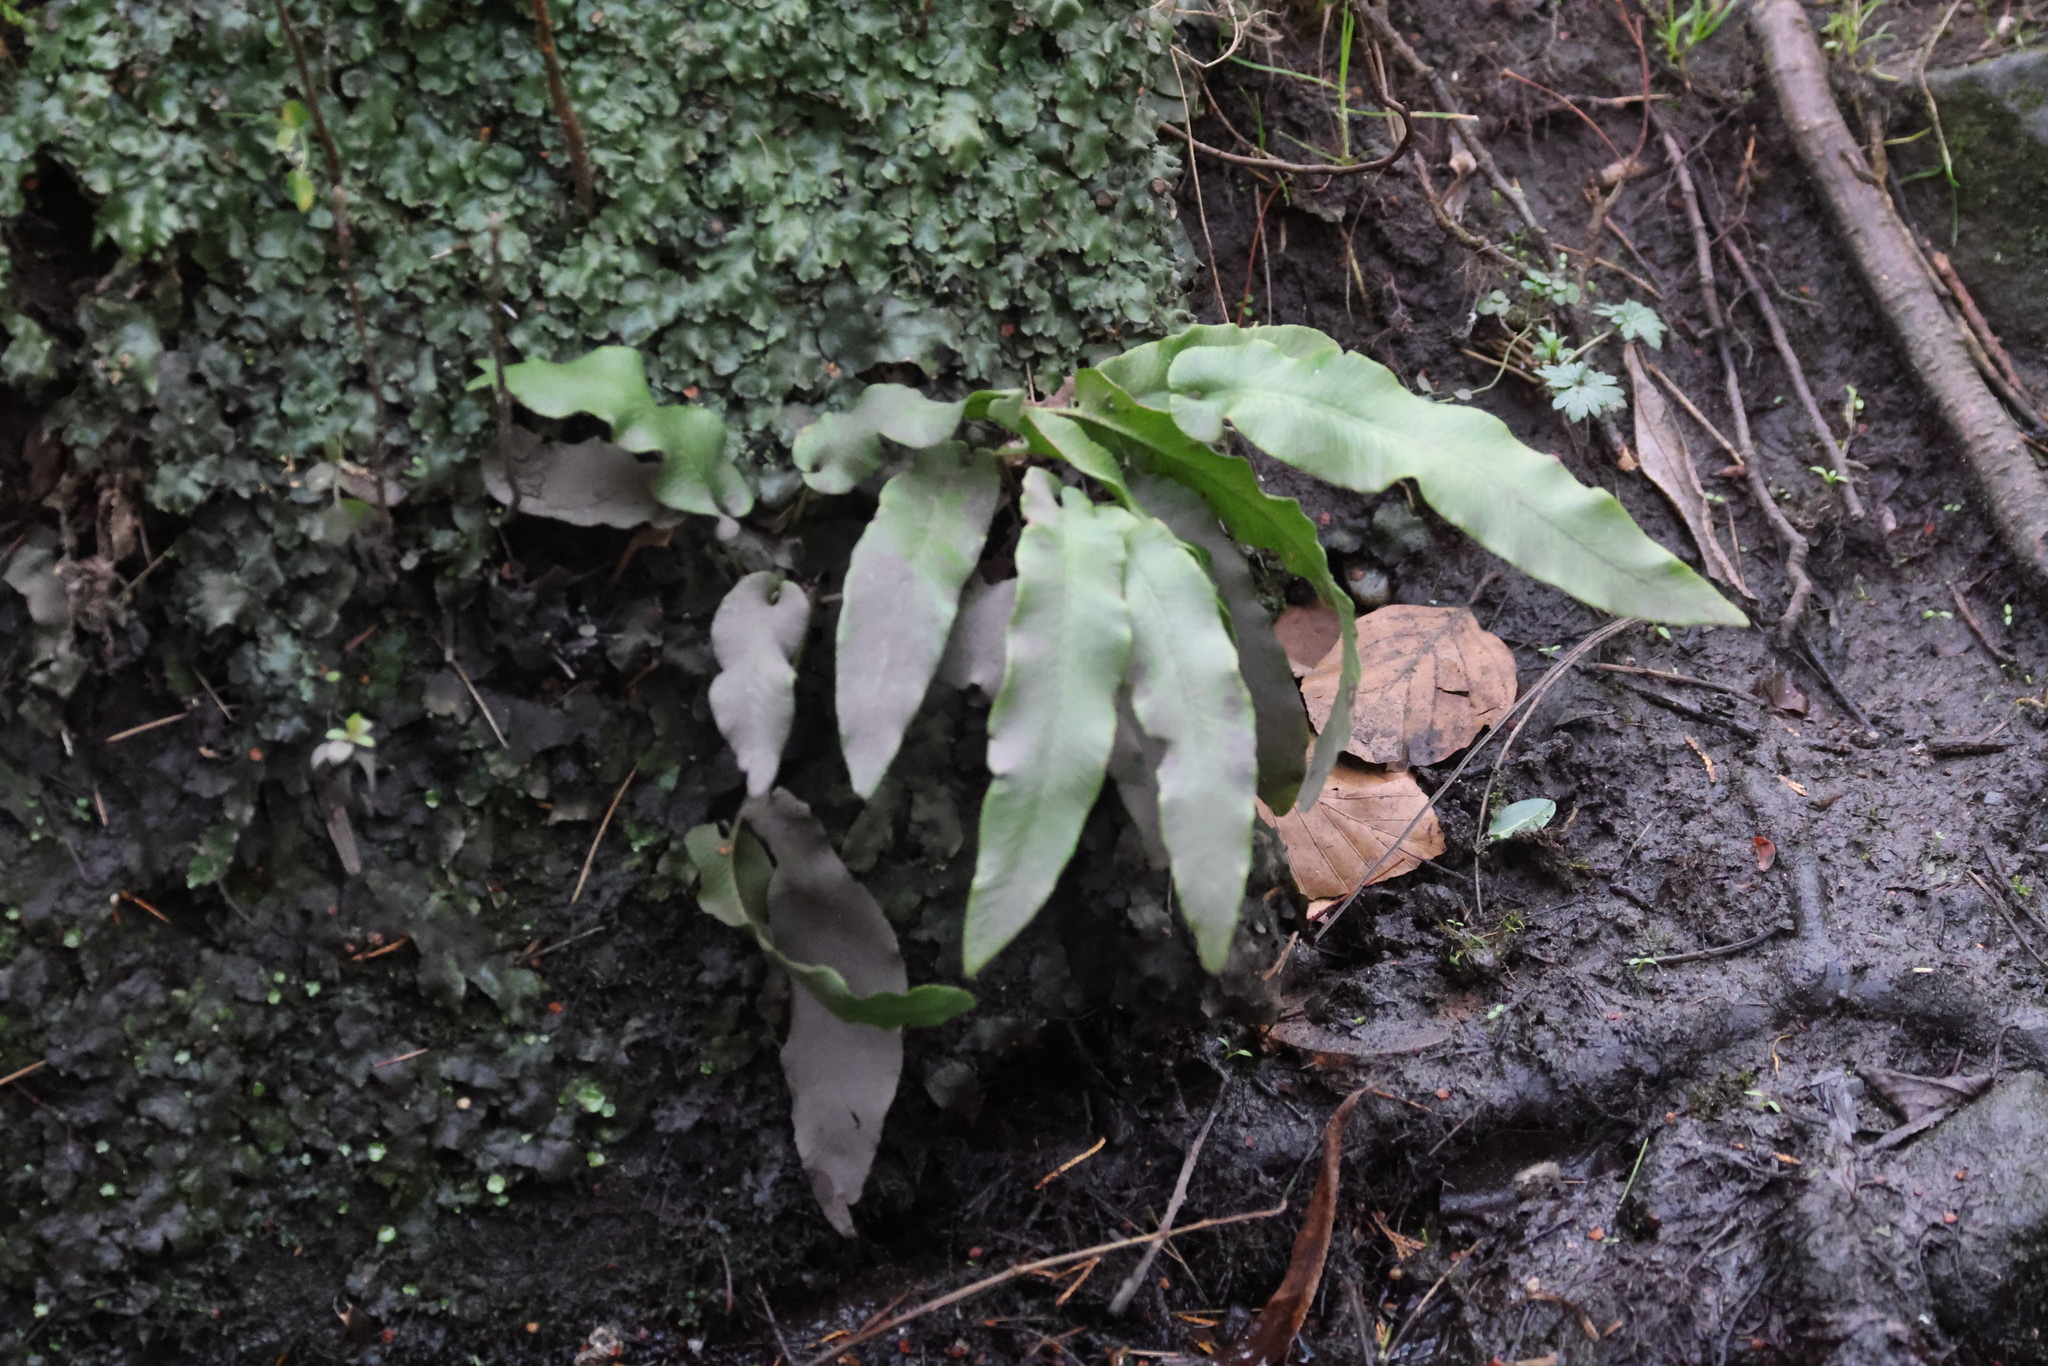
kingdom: Plantae
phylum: Tracheophyta
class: Polypodiopsida
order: Polypodiales
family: Aspleniaceae
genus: Asplenium
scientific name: Asplenium scolopendrium
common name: Hart's-tongue fern
